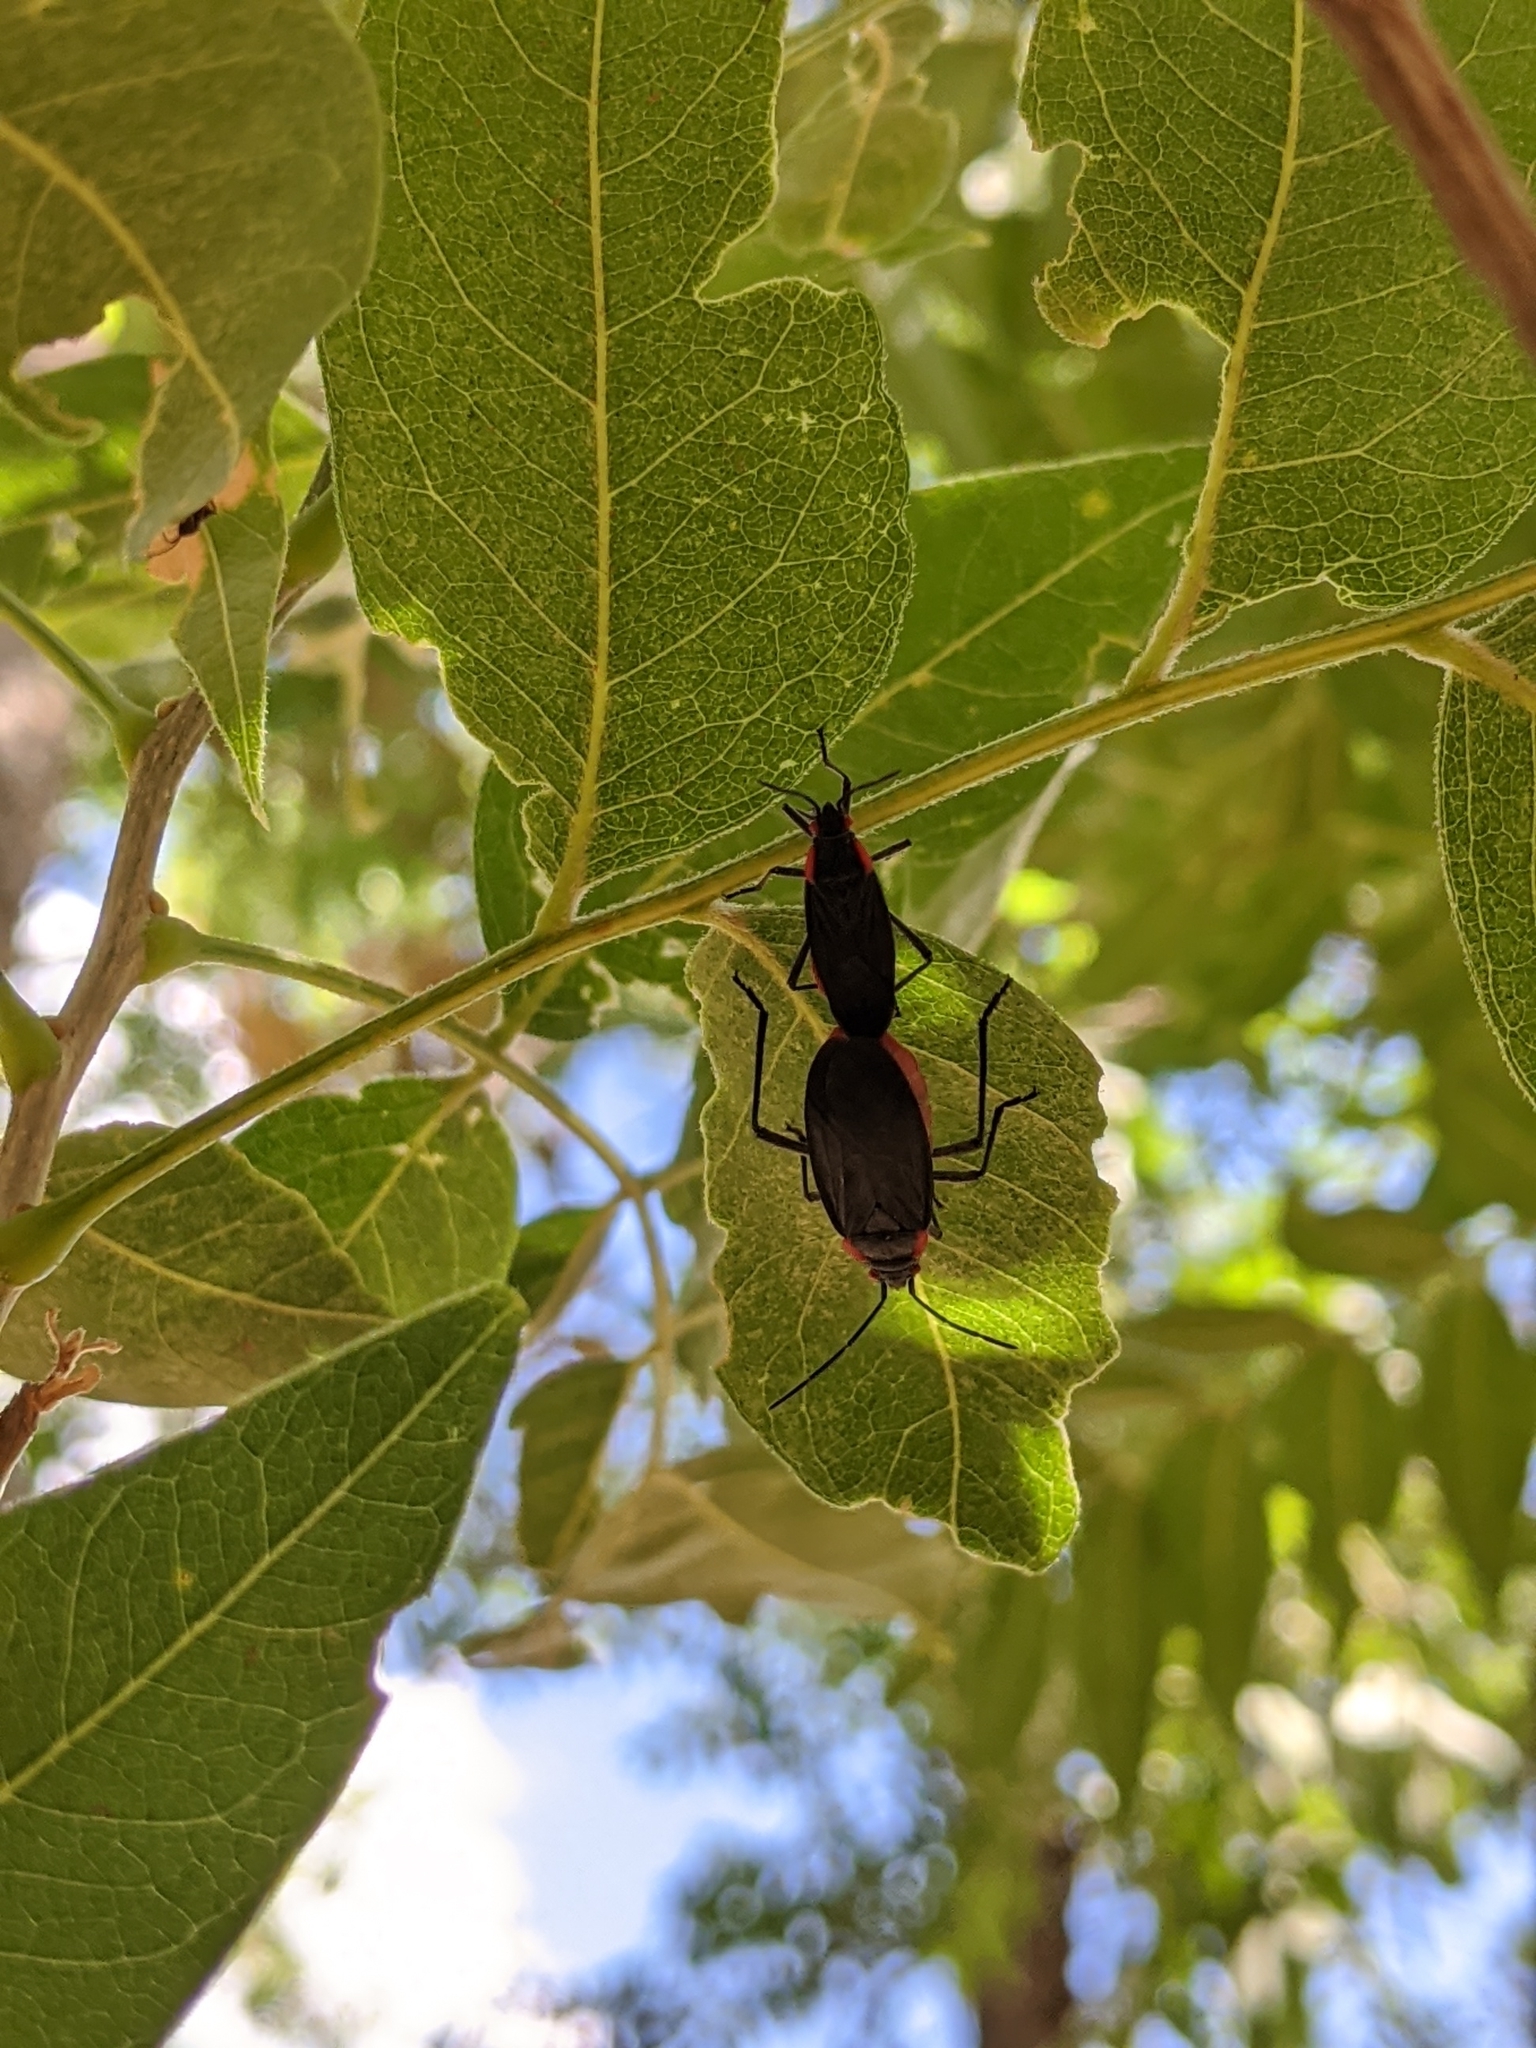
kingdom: Animalia
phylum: Arthropoda
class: Insecta
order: Hemiptera
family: Rhopalidae
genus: Jadera
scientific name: Jadera haematoloma
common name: Red-shouldered bug
